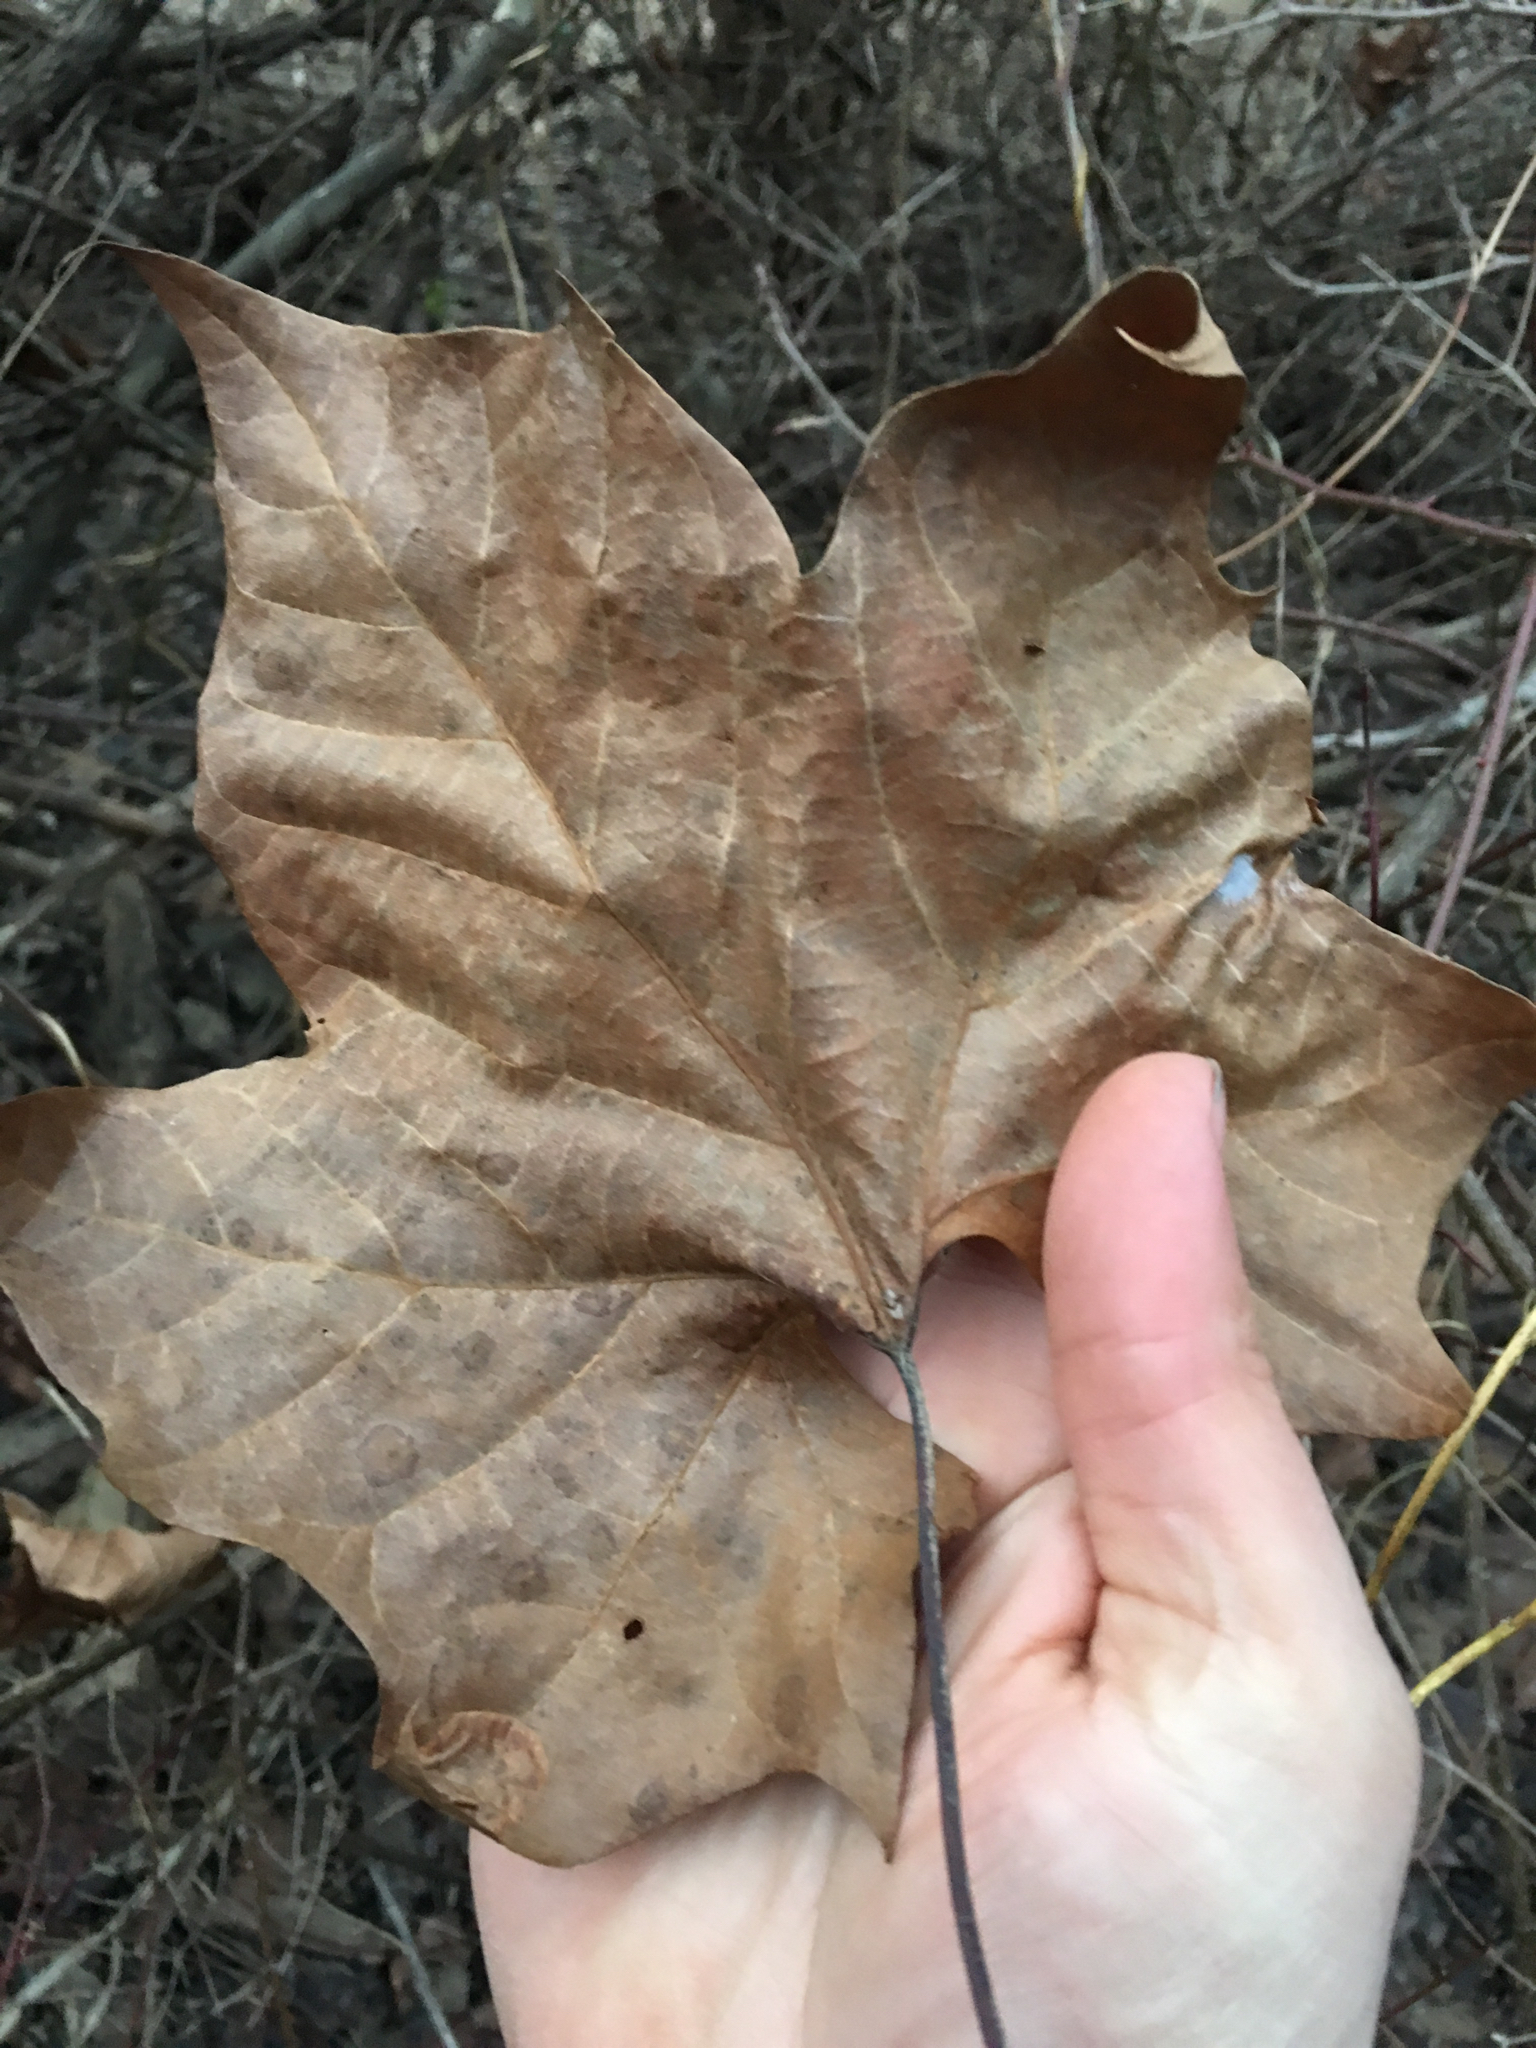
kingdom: Plantae
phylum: Tracheophyta
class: Magnoliopsida
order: Proteales
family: Platanaceae
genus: Platanus
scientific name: Platanus occidentalis
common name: American sycamore
